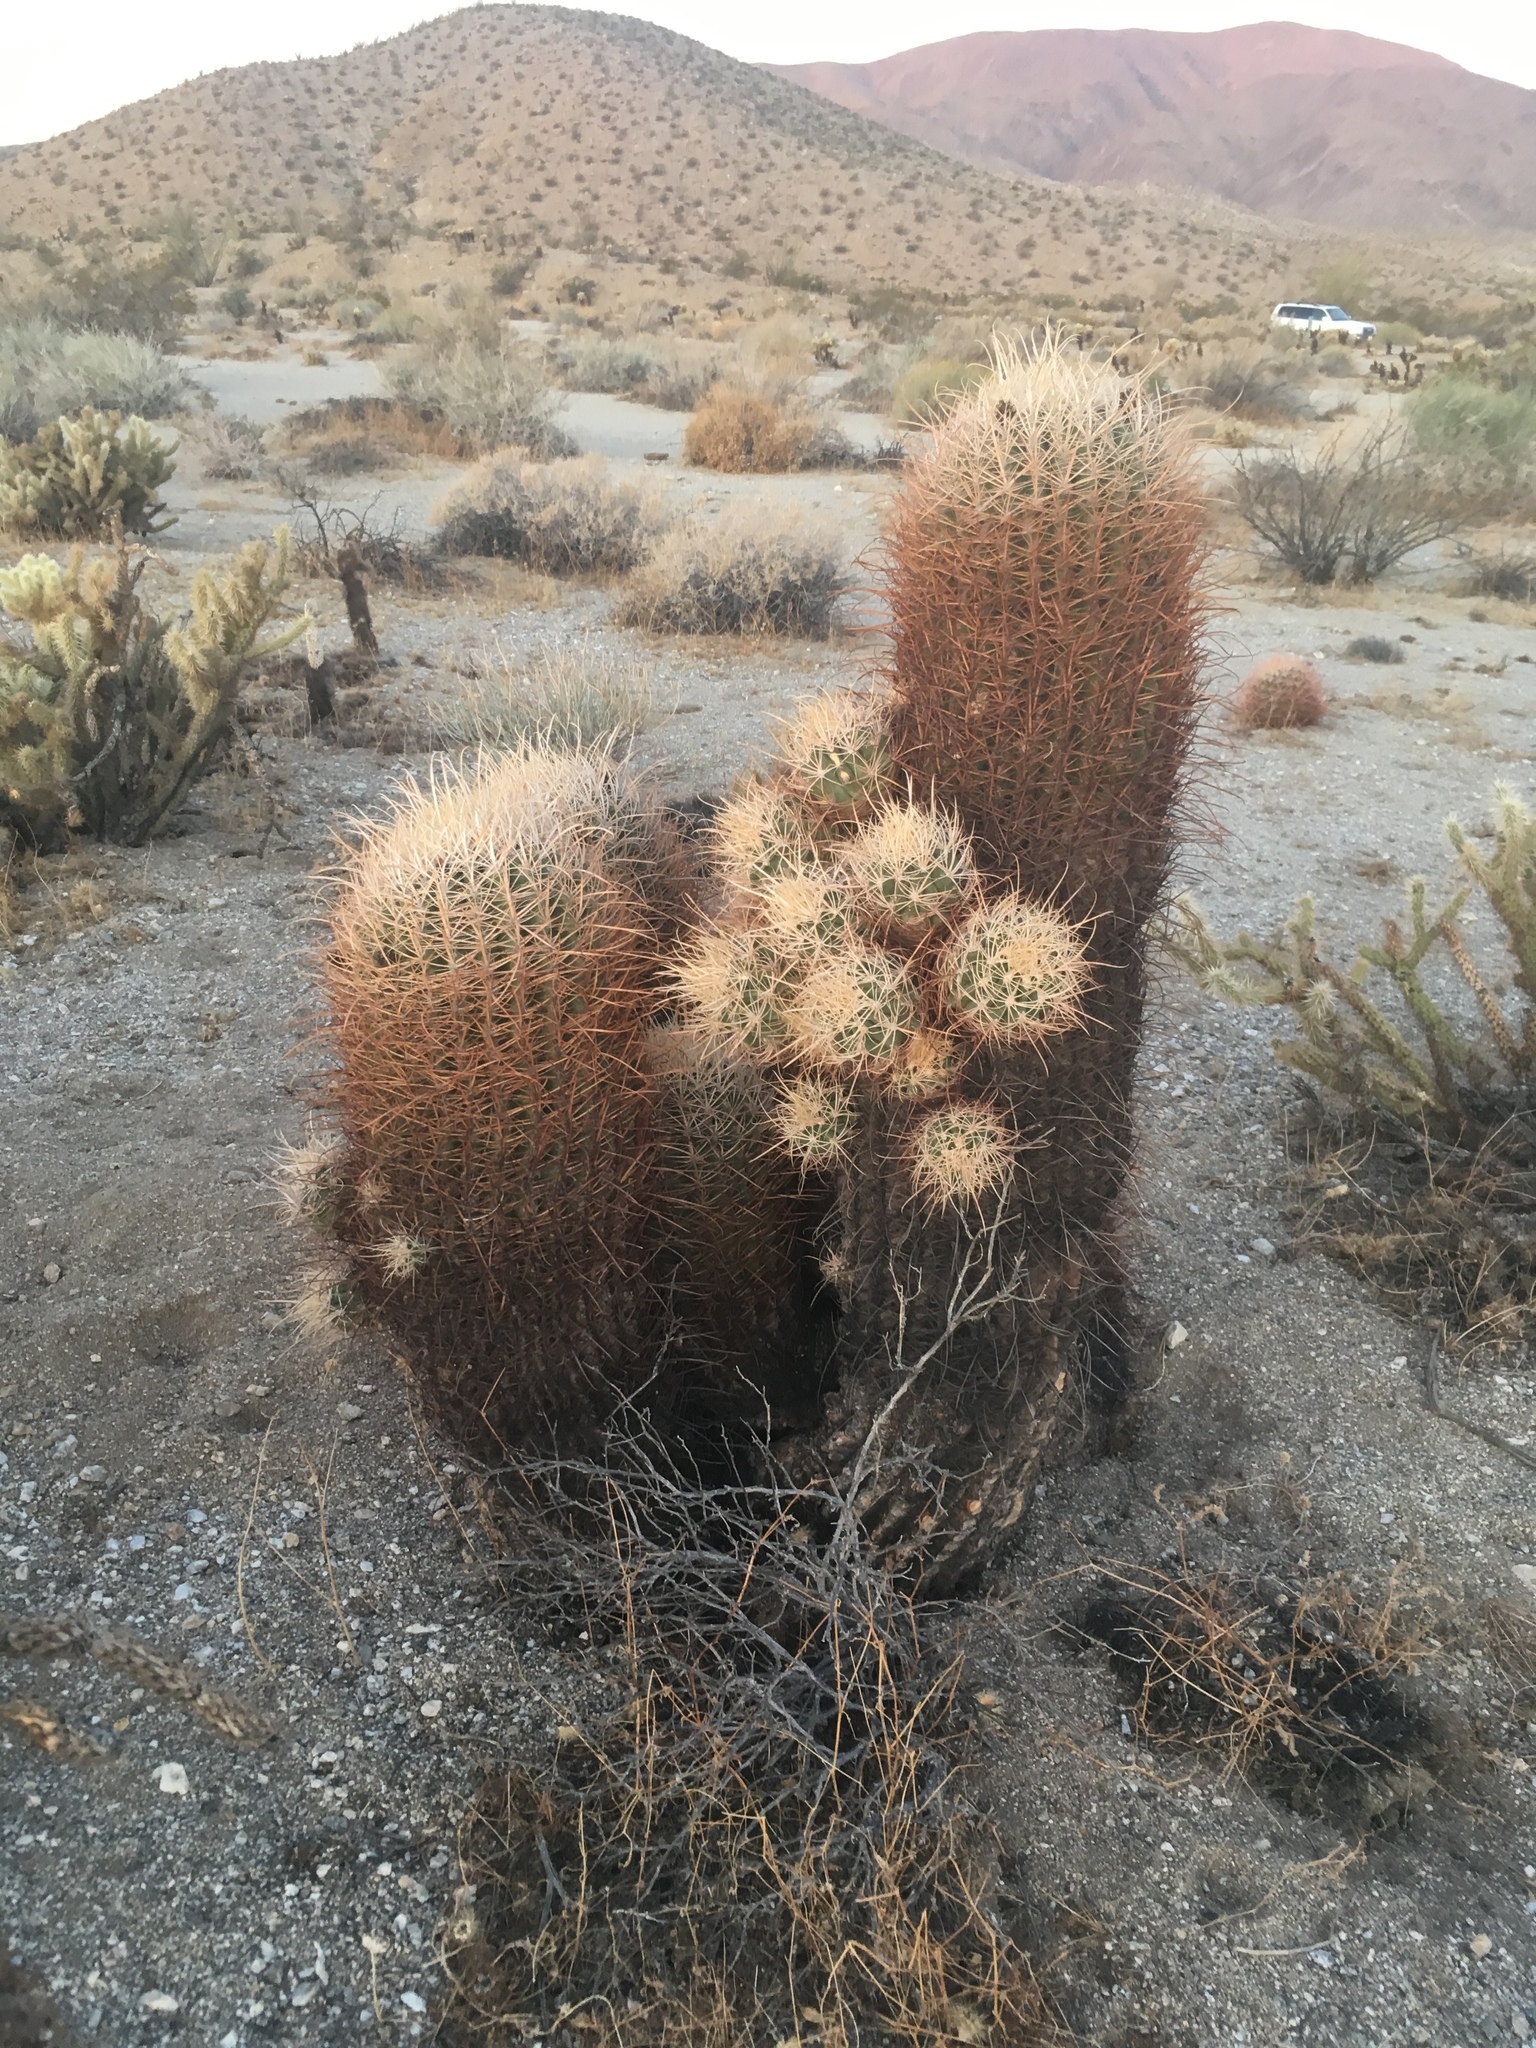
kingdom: Plantae
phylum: Tracheophyta
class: Magnoliopsida
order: Caryophyllales
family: Cactaceae
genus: Ferocactus
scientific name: Ferocactus cylindraceus
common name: California barrel cactus
